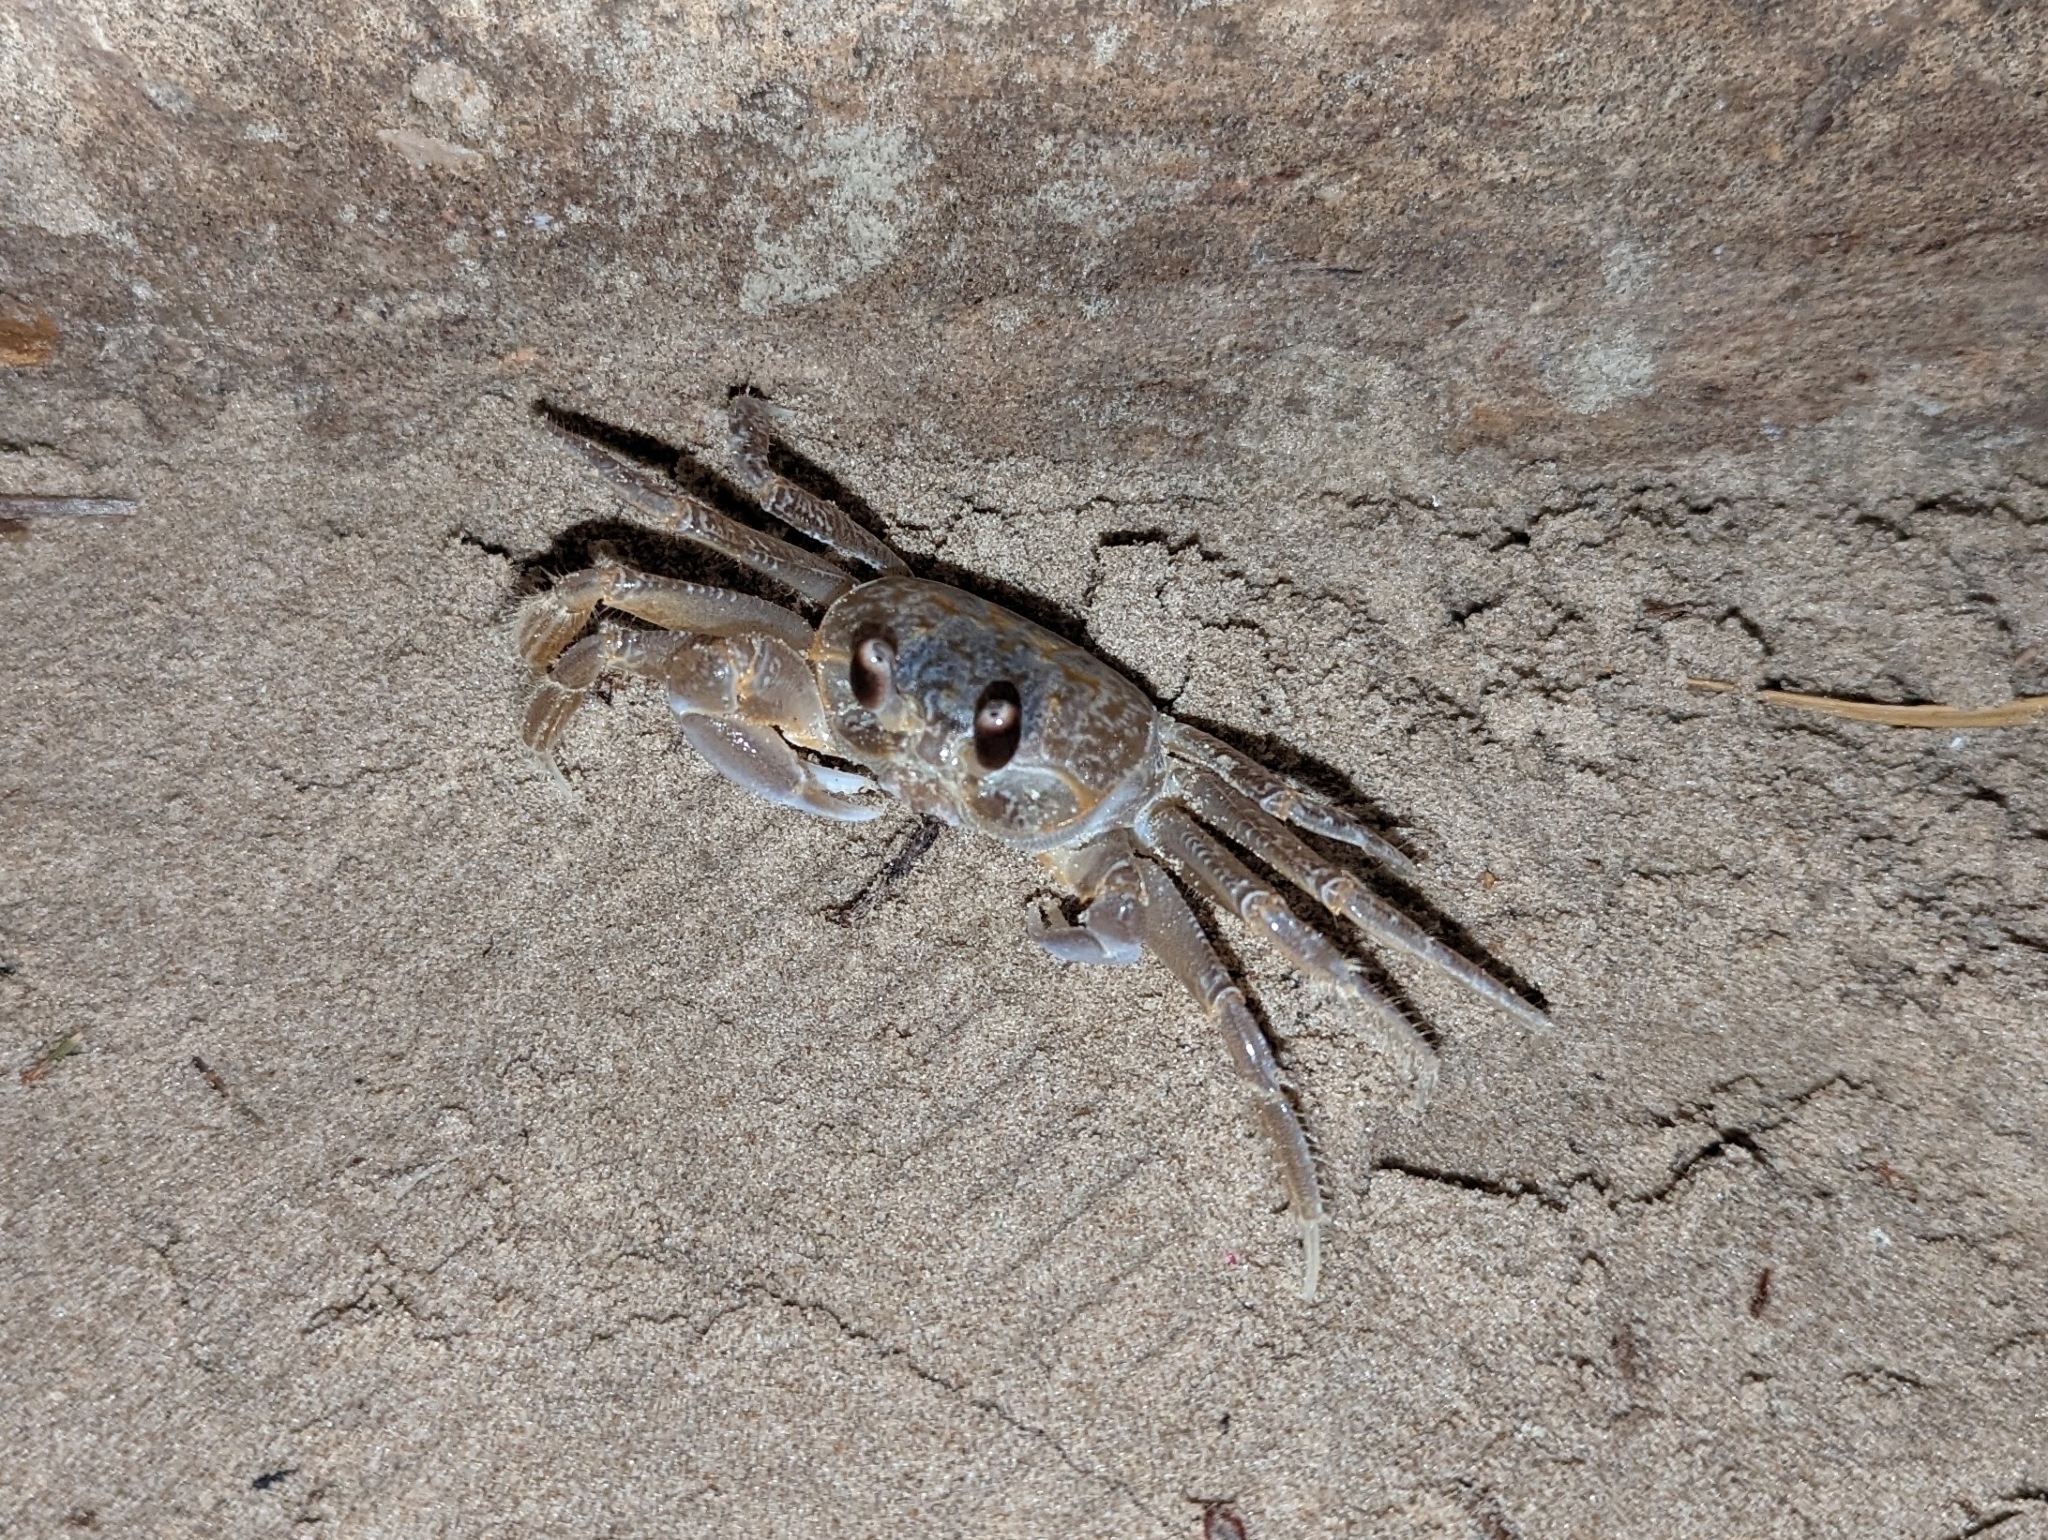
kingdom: Animalia
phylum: Arthropoda
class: Malacostraca
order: Decapoda
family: Ocypodidae
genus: Ocypode
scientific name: Ocypode quadrata
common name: Ghost crab
